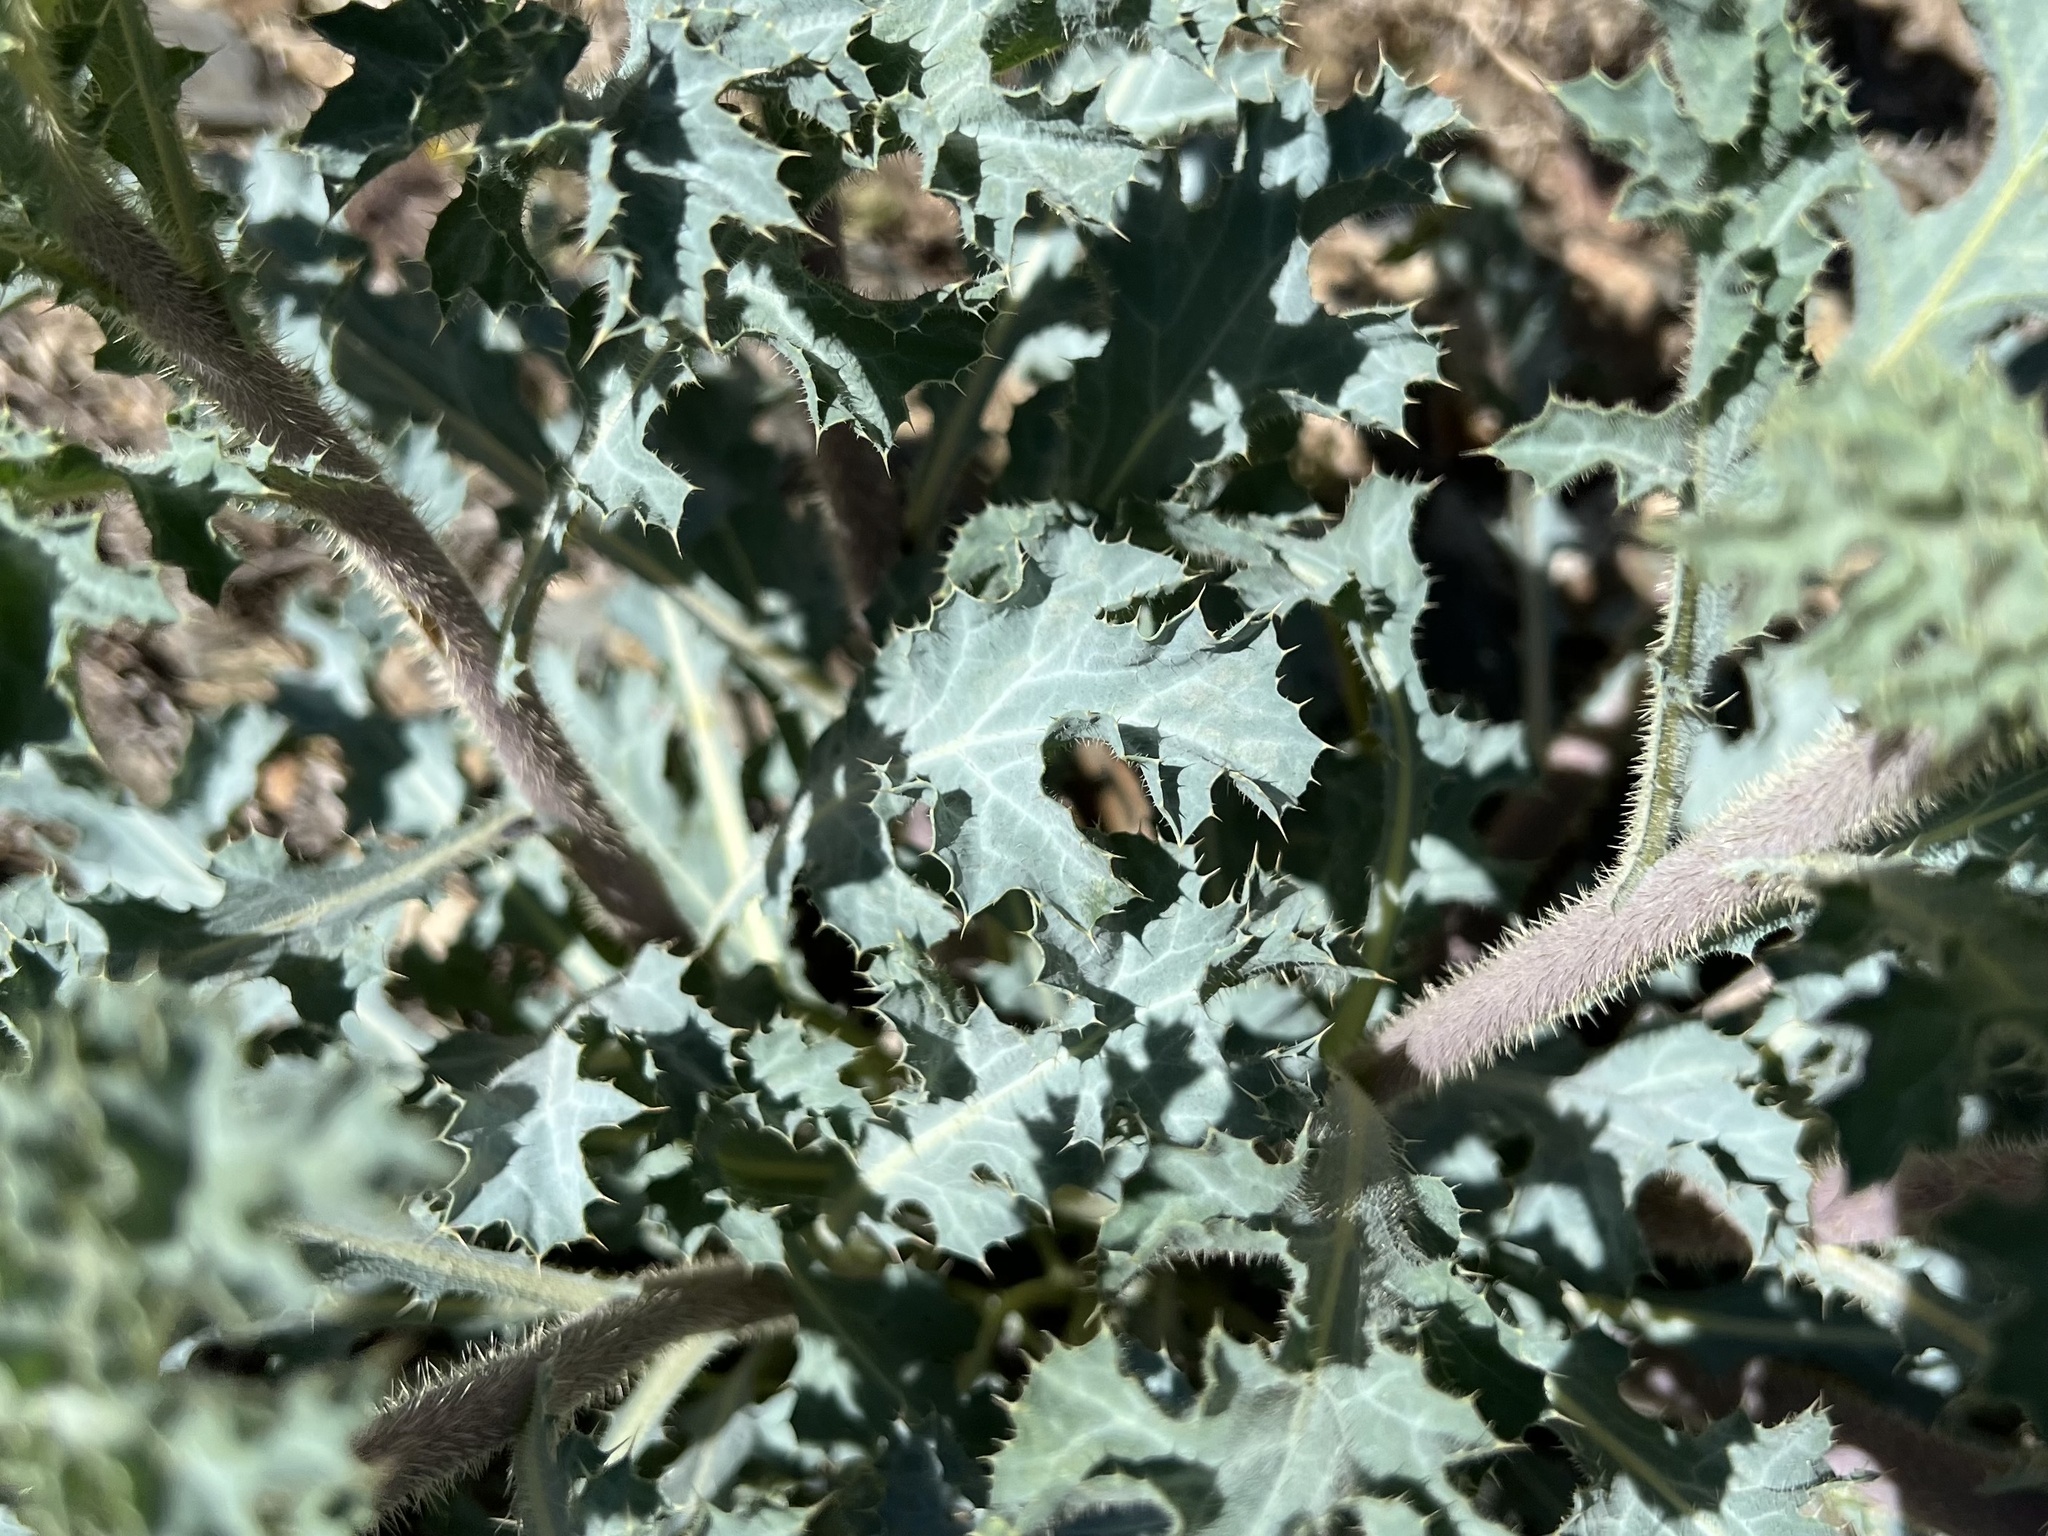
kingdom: Plantae
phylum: Tracheophyta
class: Magnoliopsida
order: Ranunculales
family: Papaveraceae
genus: Argemone
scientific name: Argemone munita
